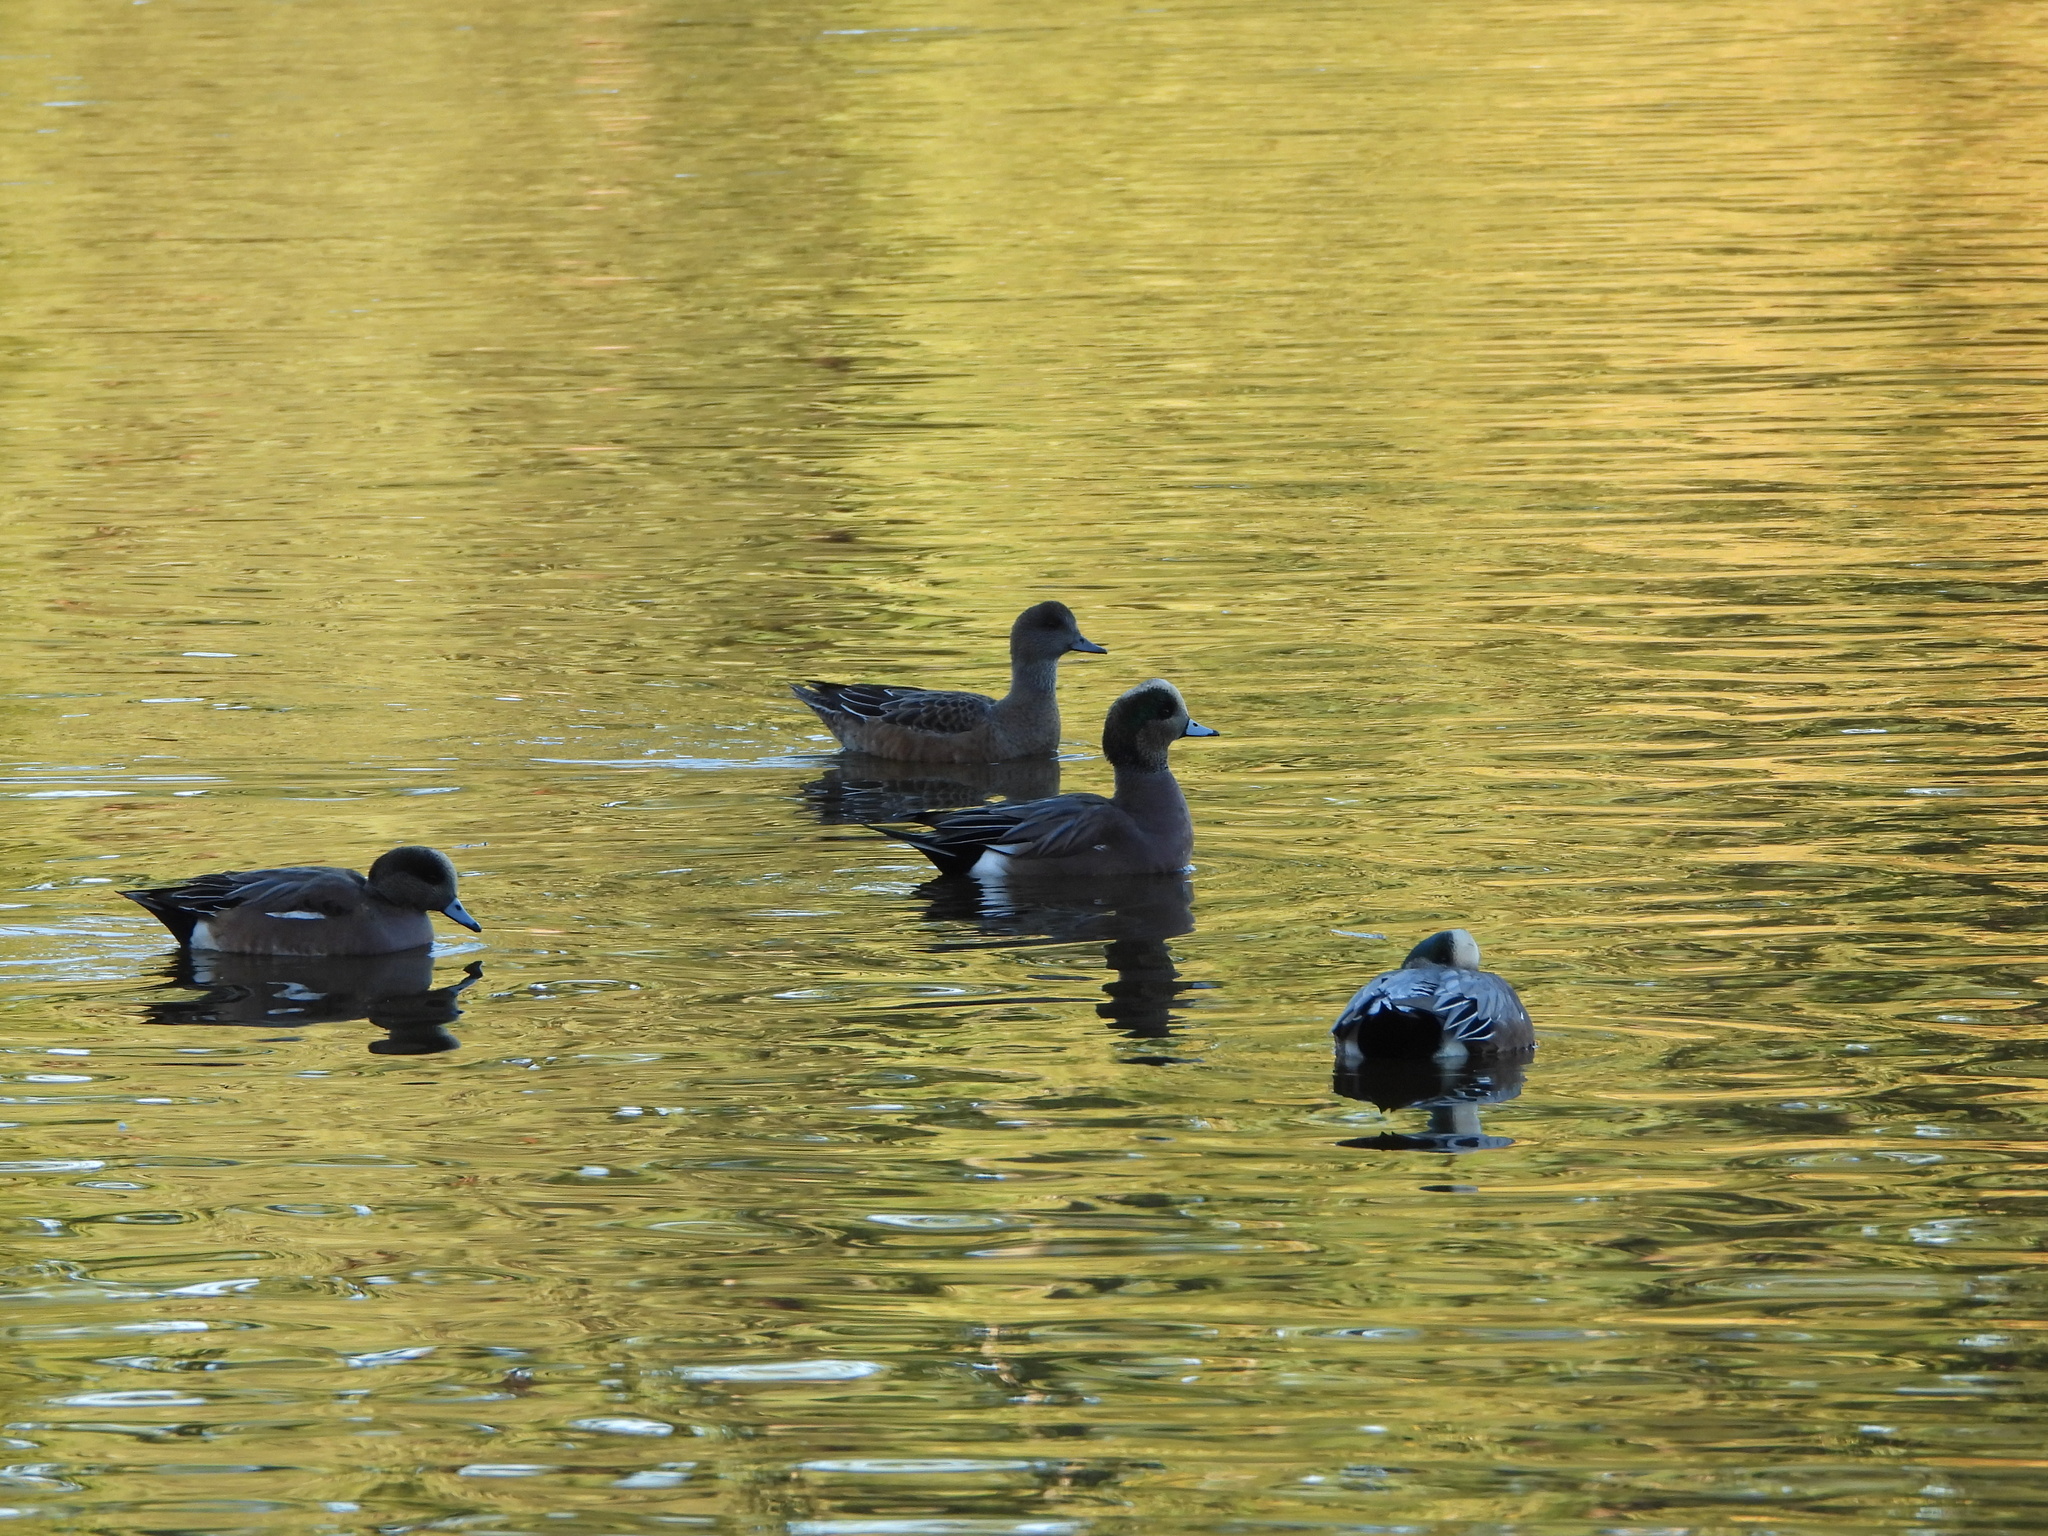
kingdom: Animalia
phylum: Chordata
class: Aves
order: Anseriformes
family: Anatidae
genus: Mareca
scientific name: Mareca americana
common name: American wigeon
